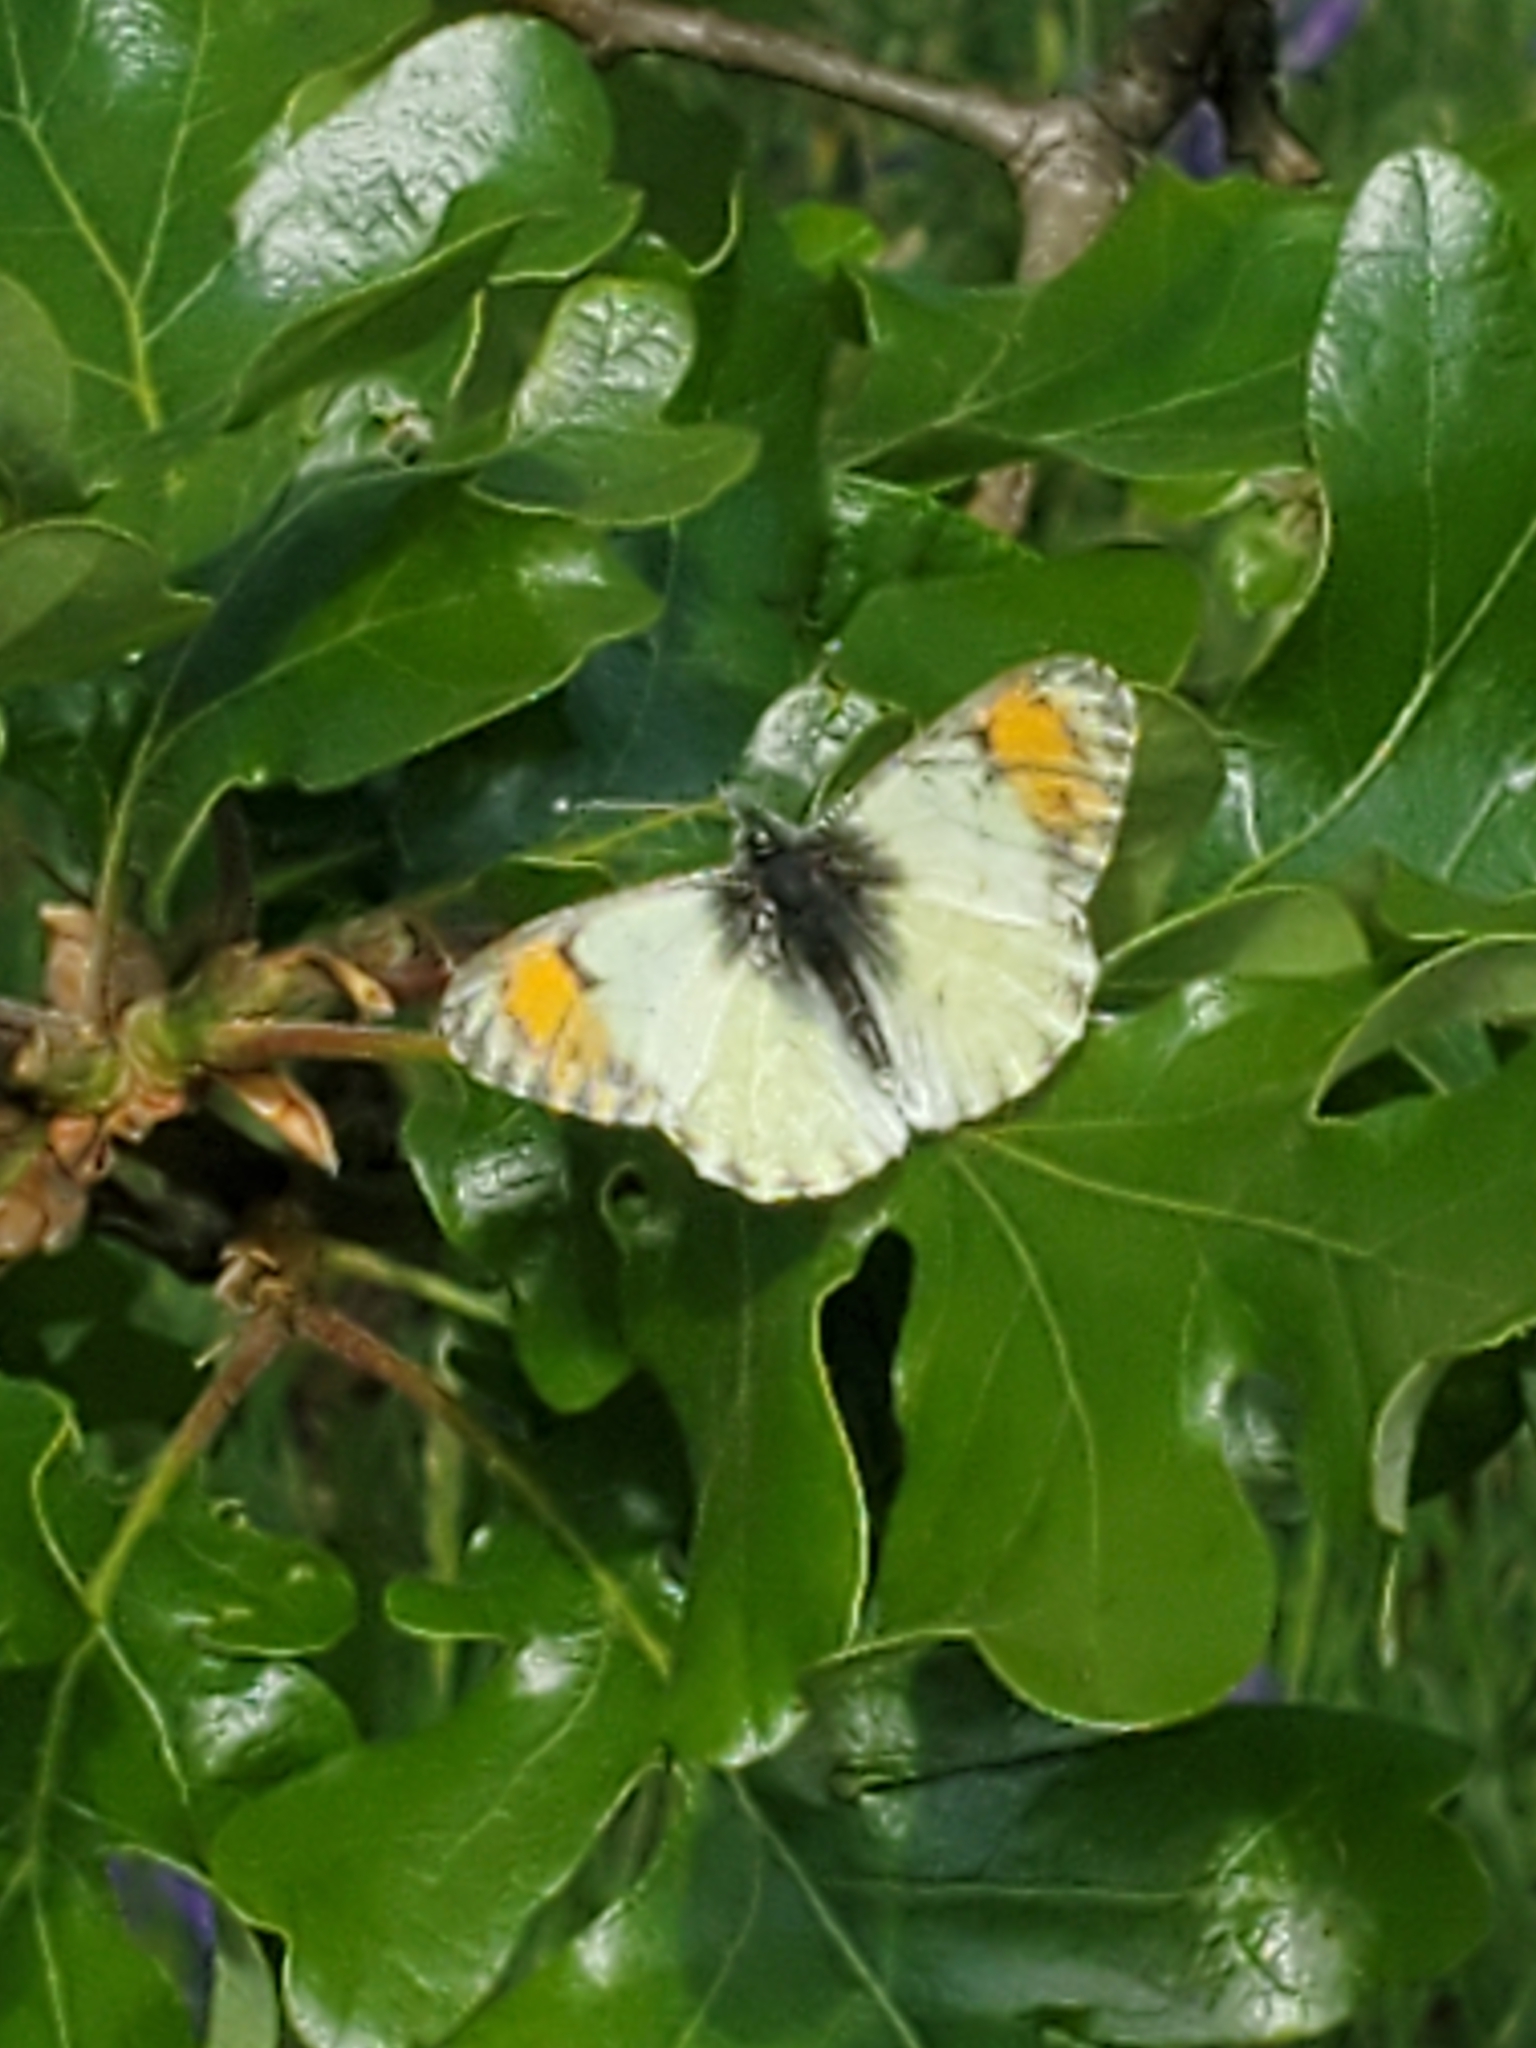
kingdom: Animalia
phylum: Arthropoda
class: Insecta
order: Lepidoptera
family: Pieridae
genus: Anthocharis
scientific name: Anthocharis julia
